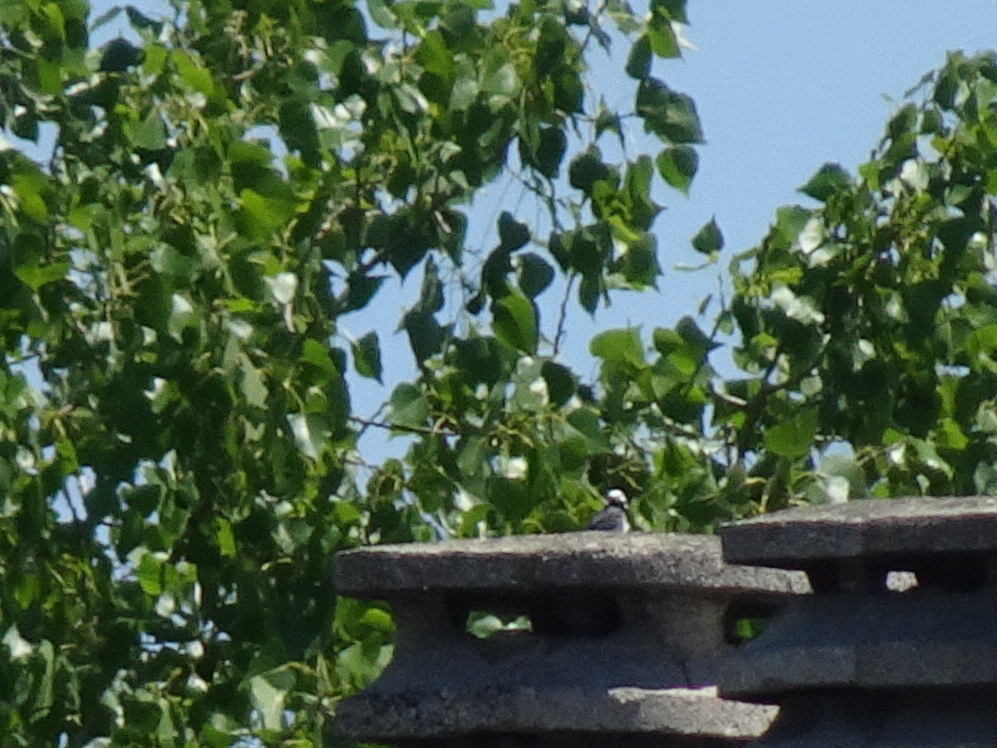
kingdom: Animalia
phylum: Chordata
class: Aves
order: Passeriformes
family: Motacillidae
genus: Motacilla
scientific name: Motacilla alba
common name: White wagtail
